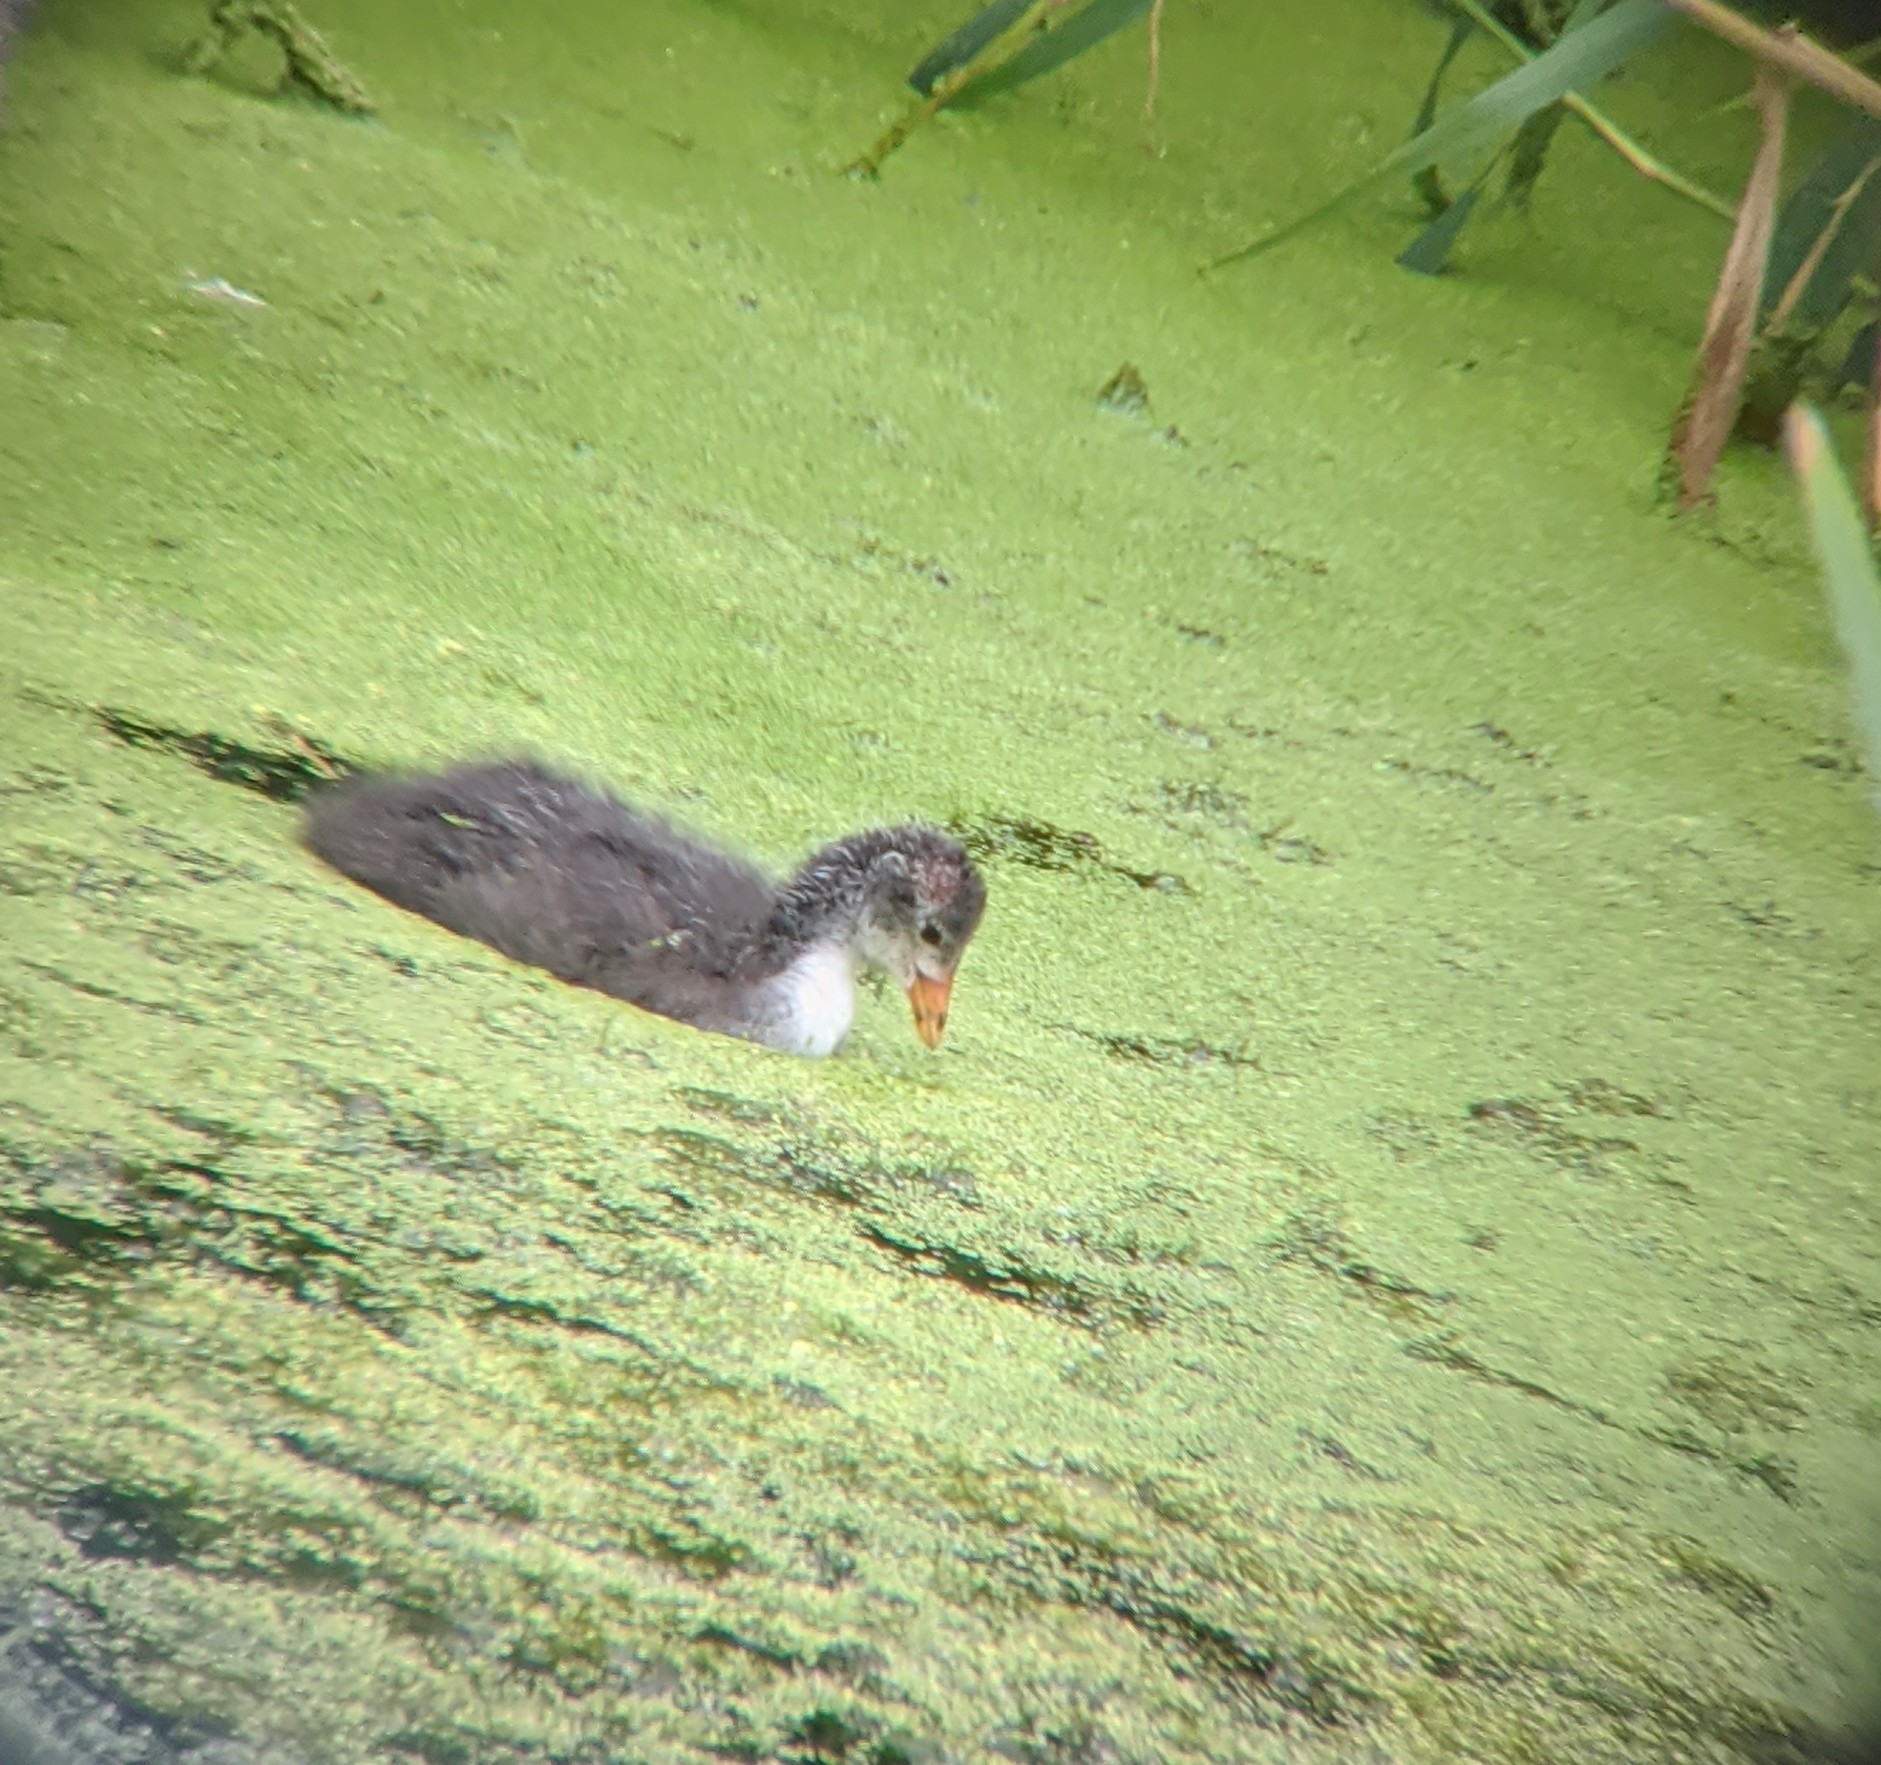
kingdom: Animalia
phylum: Chordata
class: Aves
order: Gruiformes
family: Rallidae
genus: Fulica
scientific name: Fulica atra
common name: Eurasian coot
